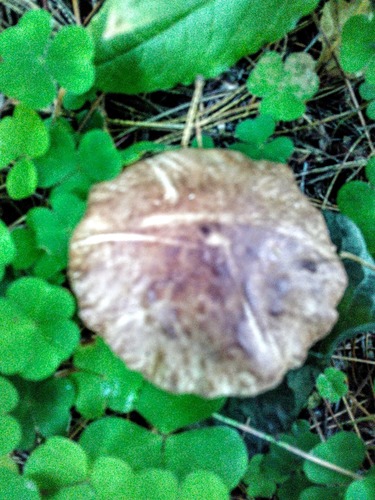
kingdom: Fungi
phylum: Basidiomycota
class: Agaricomycetes
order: Boletales
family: Suillaceae
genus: Suillus
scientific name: Suillus placidus
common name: Slippery white bolete
